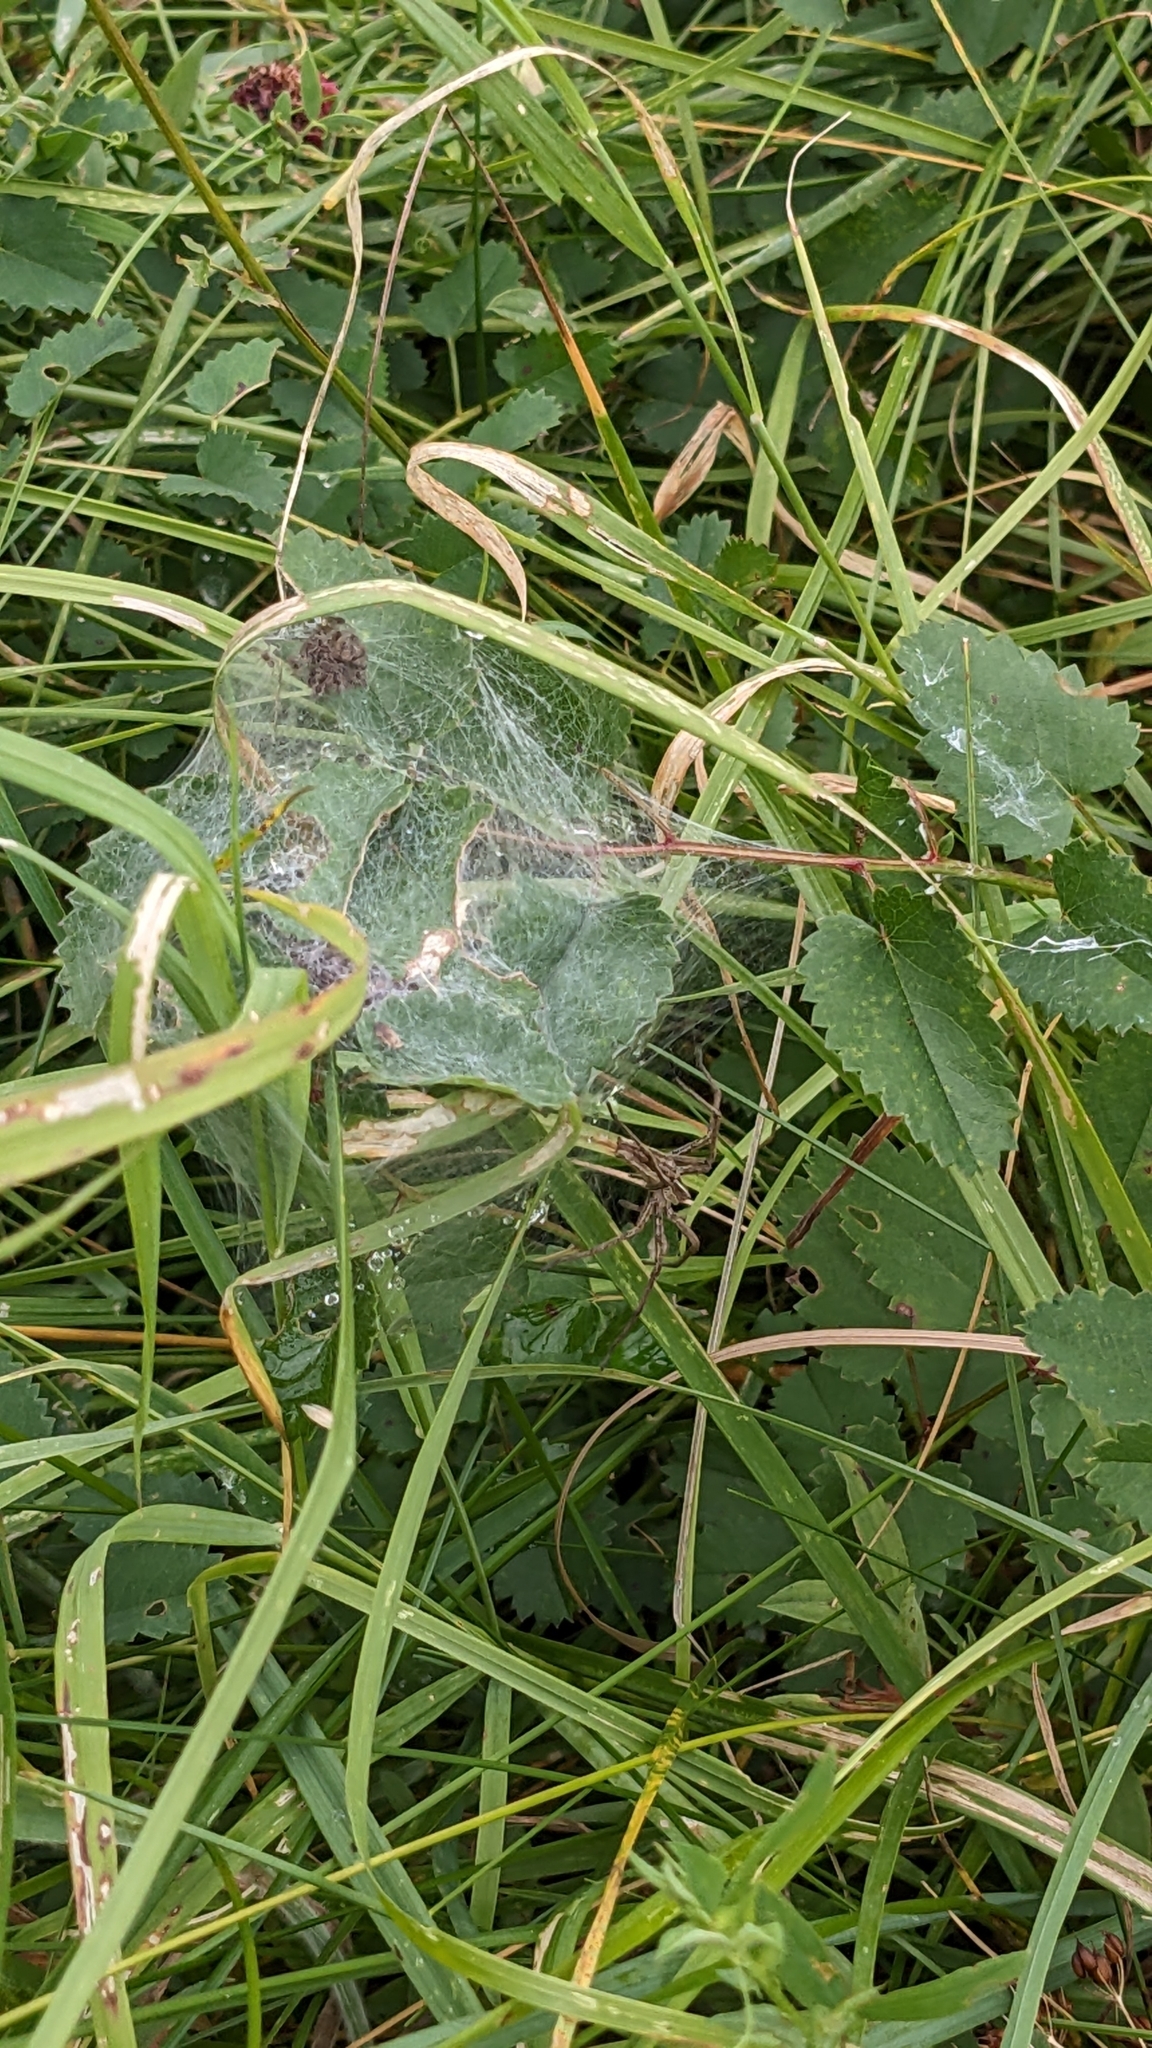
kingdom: Animalia
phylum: Arthropoda
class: Arachnida
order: Araneae
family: Pisauridae
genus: Pisaura
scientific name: Pisaura mirabilis
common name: Tent spider
